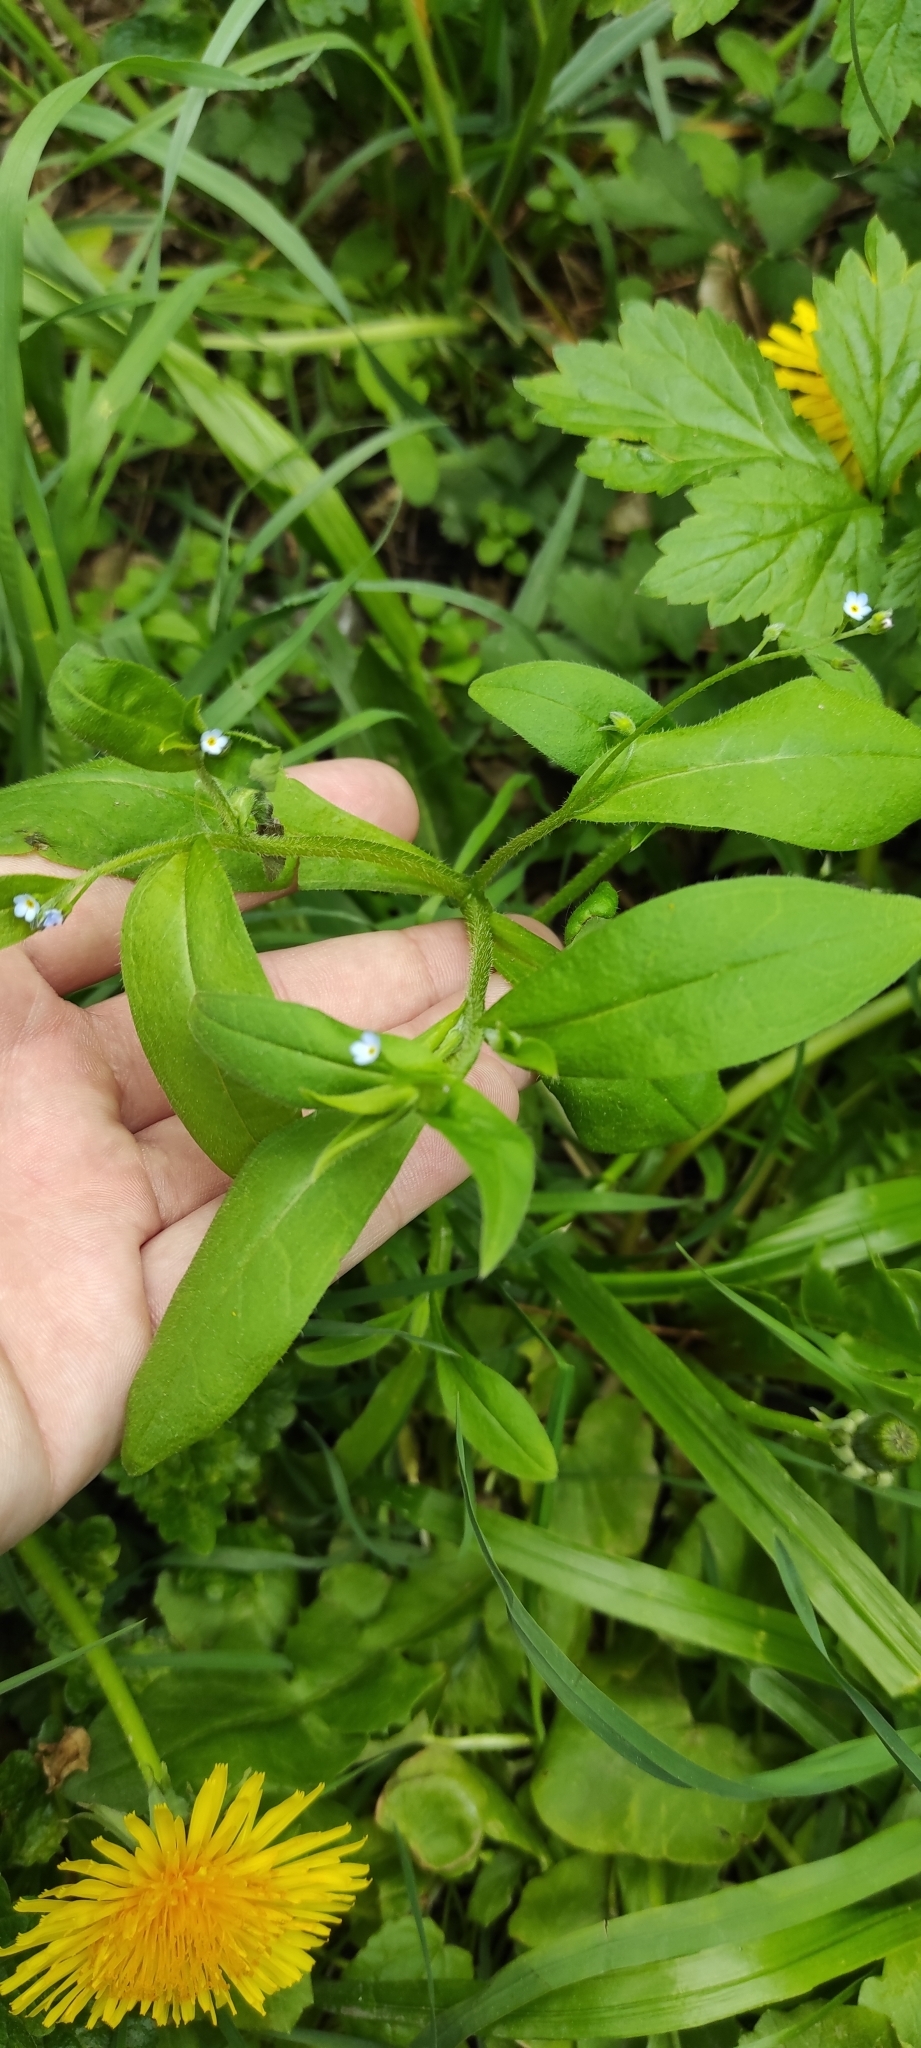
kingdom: Plantae
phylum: Tracheophyta
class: Magnoliopsida
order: Boraginales
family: Boraginaceae
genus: Myosotis
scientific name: Myosotis sparsiflora
